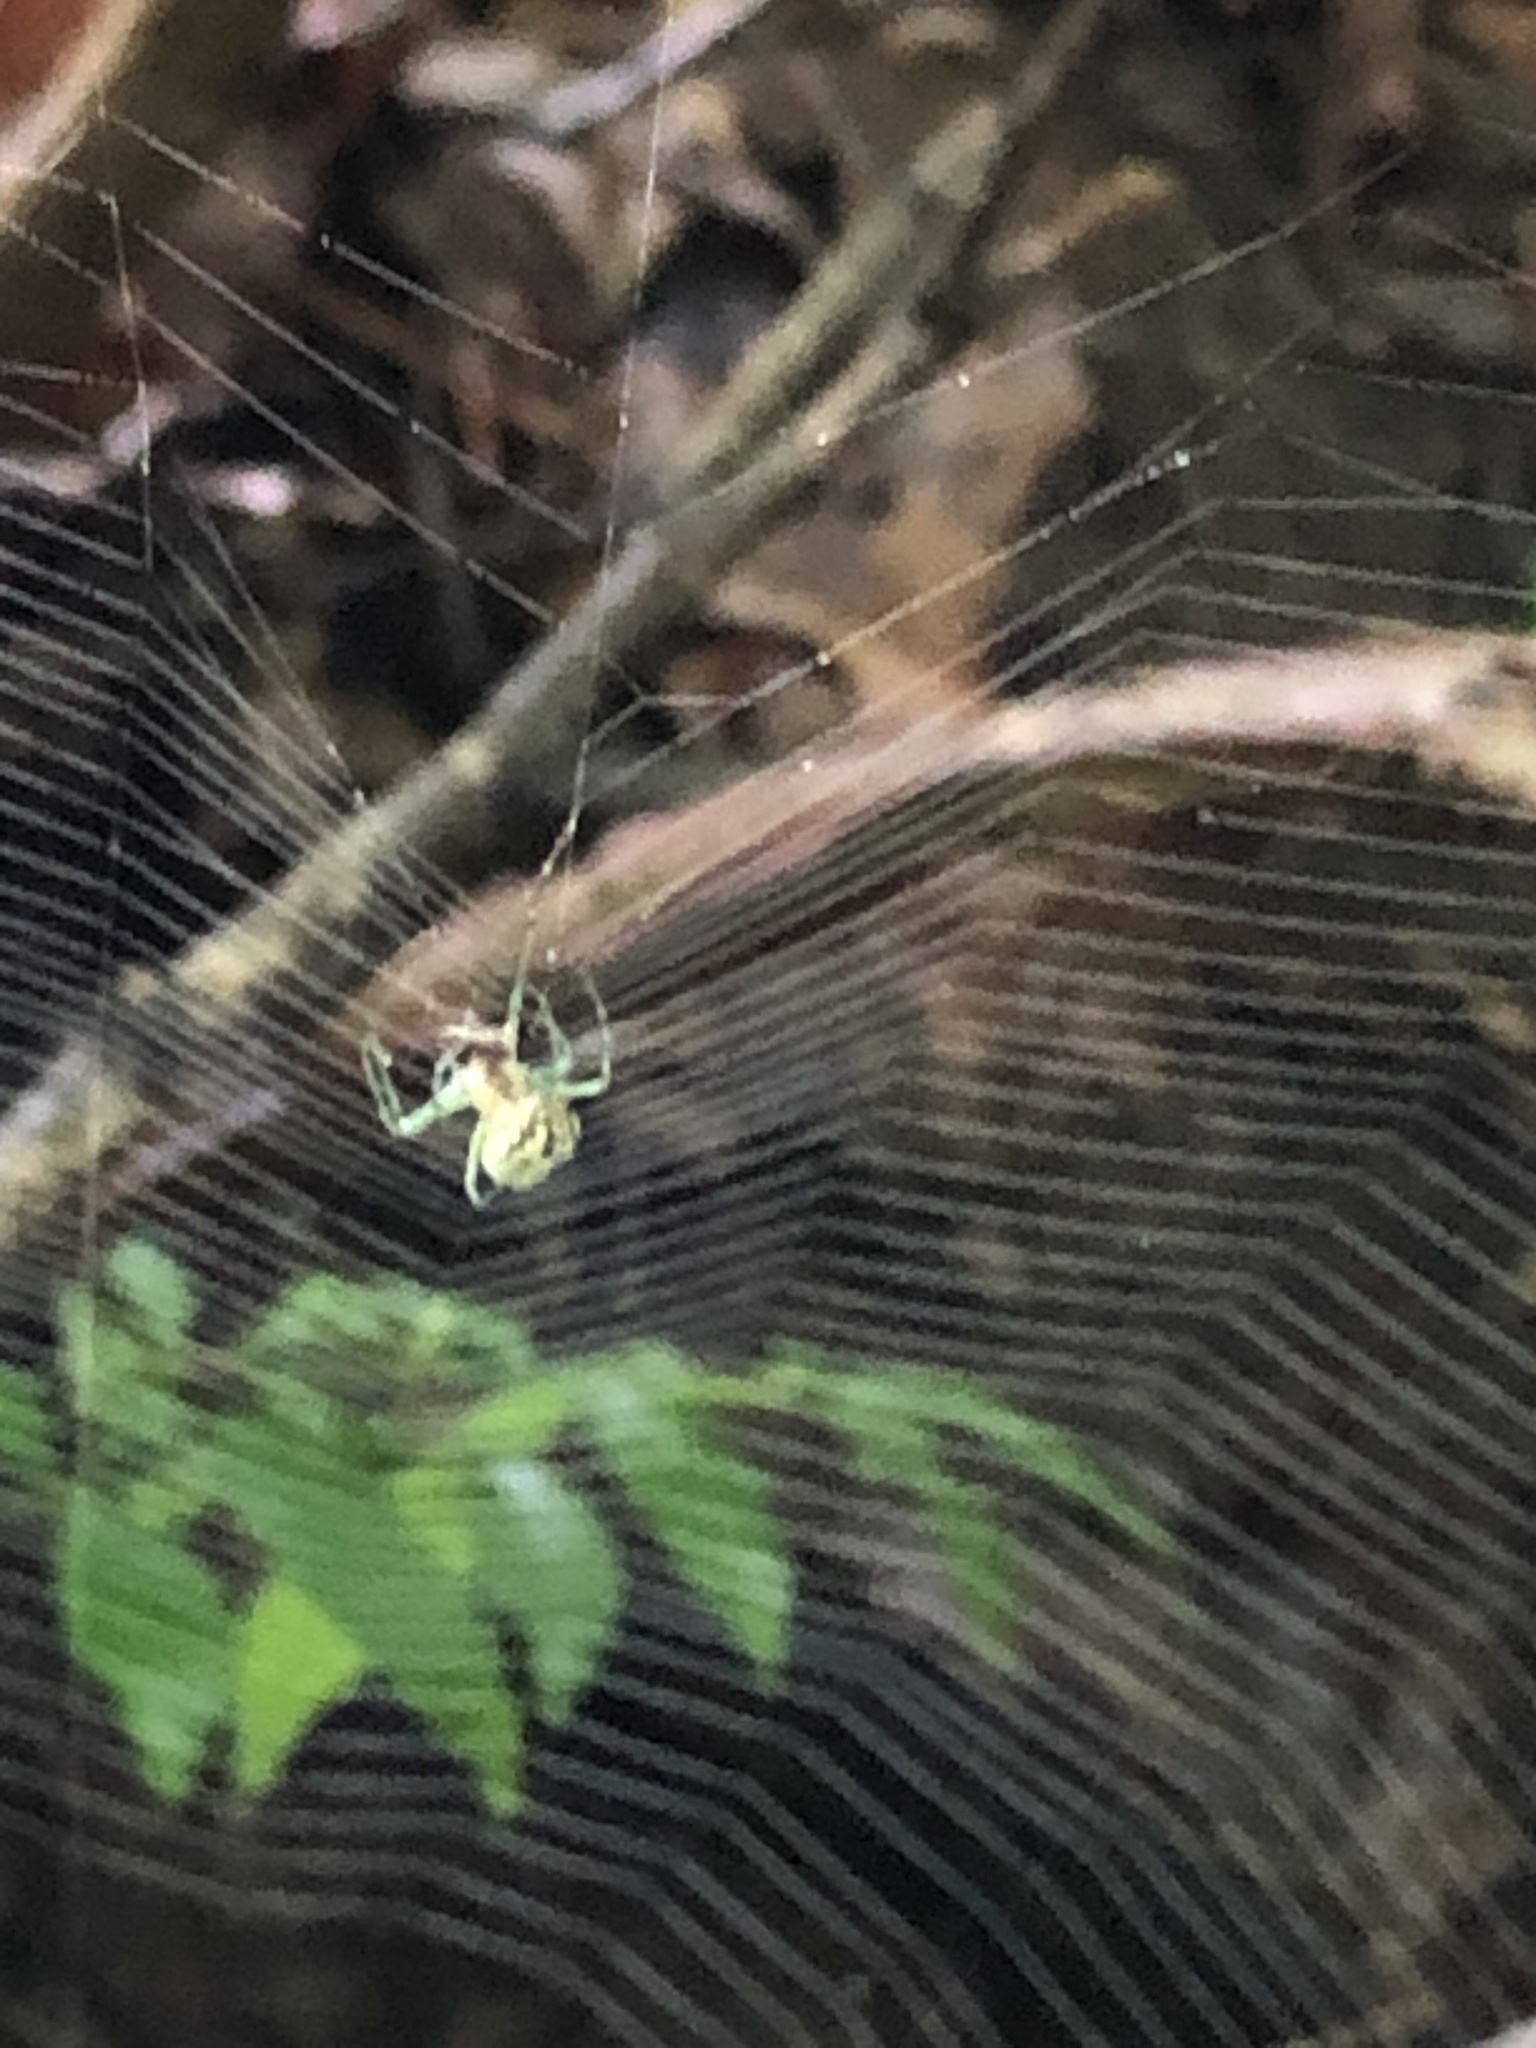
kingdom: Animalia
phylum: Arthropoda
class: Arachnida
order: Araneae
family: Tetragnathidae
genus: Leucauge
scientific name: Leucauge venusta
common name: Longjawed orb weavers
